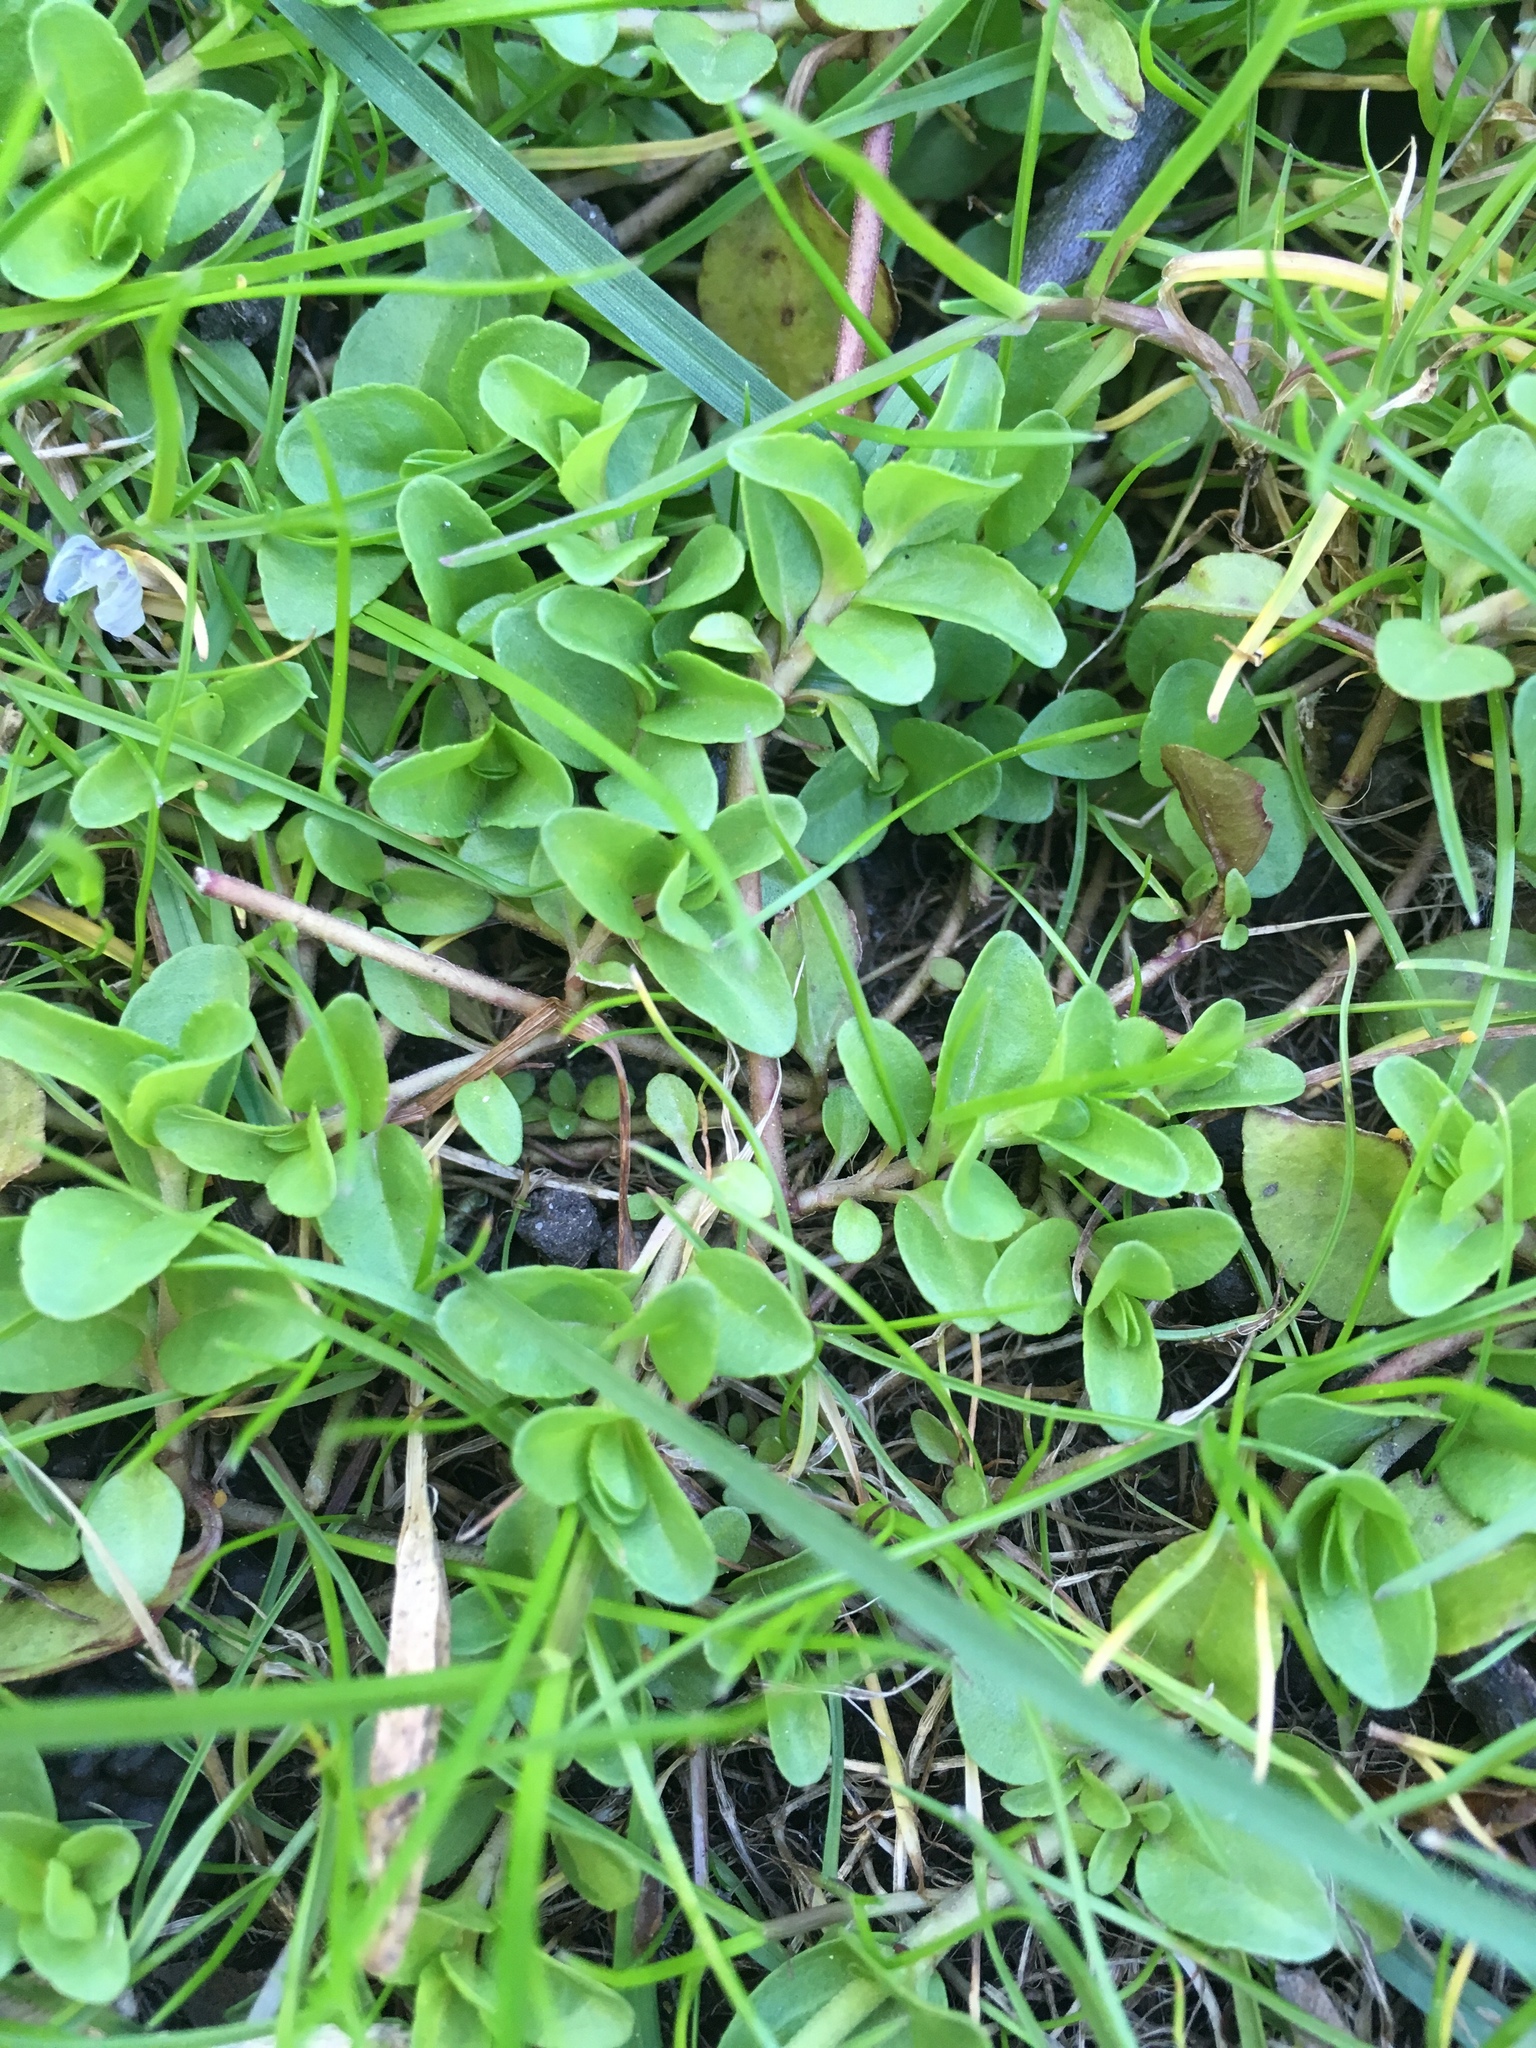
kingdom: Plantae
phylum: Tracheophyta
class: Magnoliopsida
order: Lamiales
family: Plantaginaceae
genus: Veronica
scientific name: Veronica serpyllifolia
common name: Thyme-leaved speedwell
